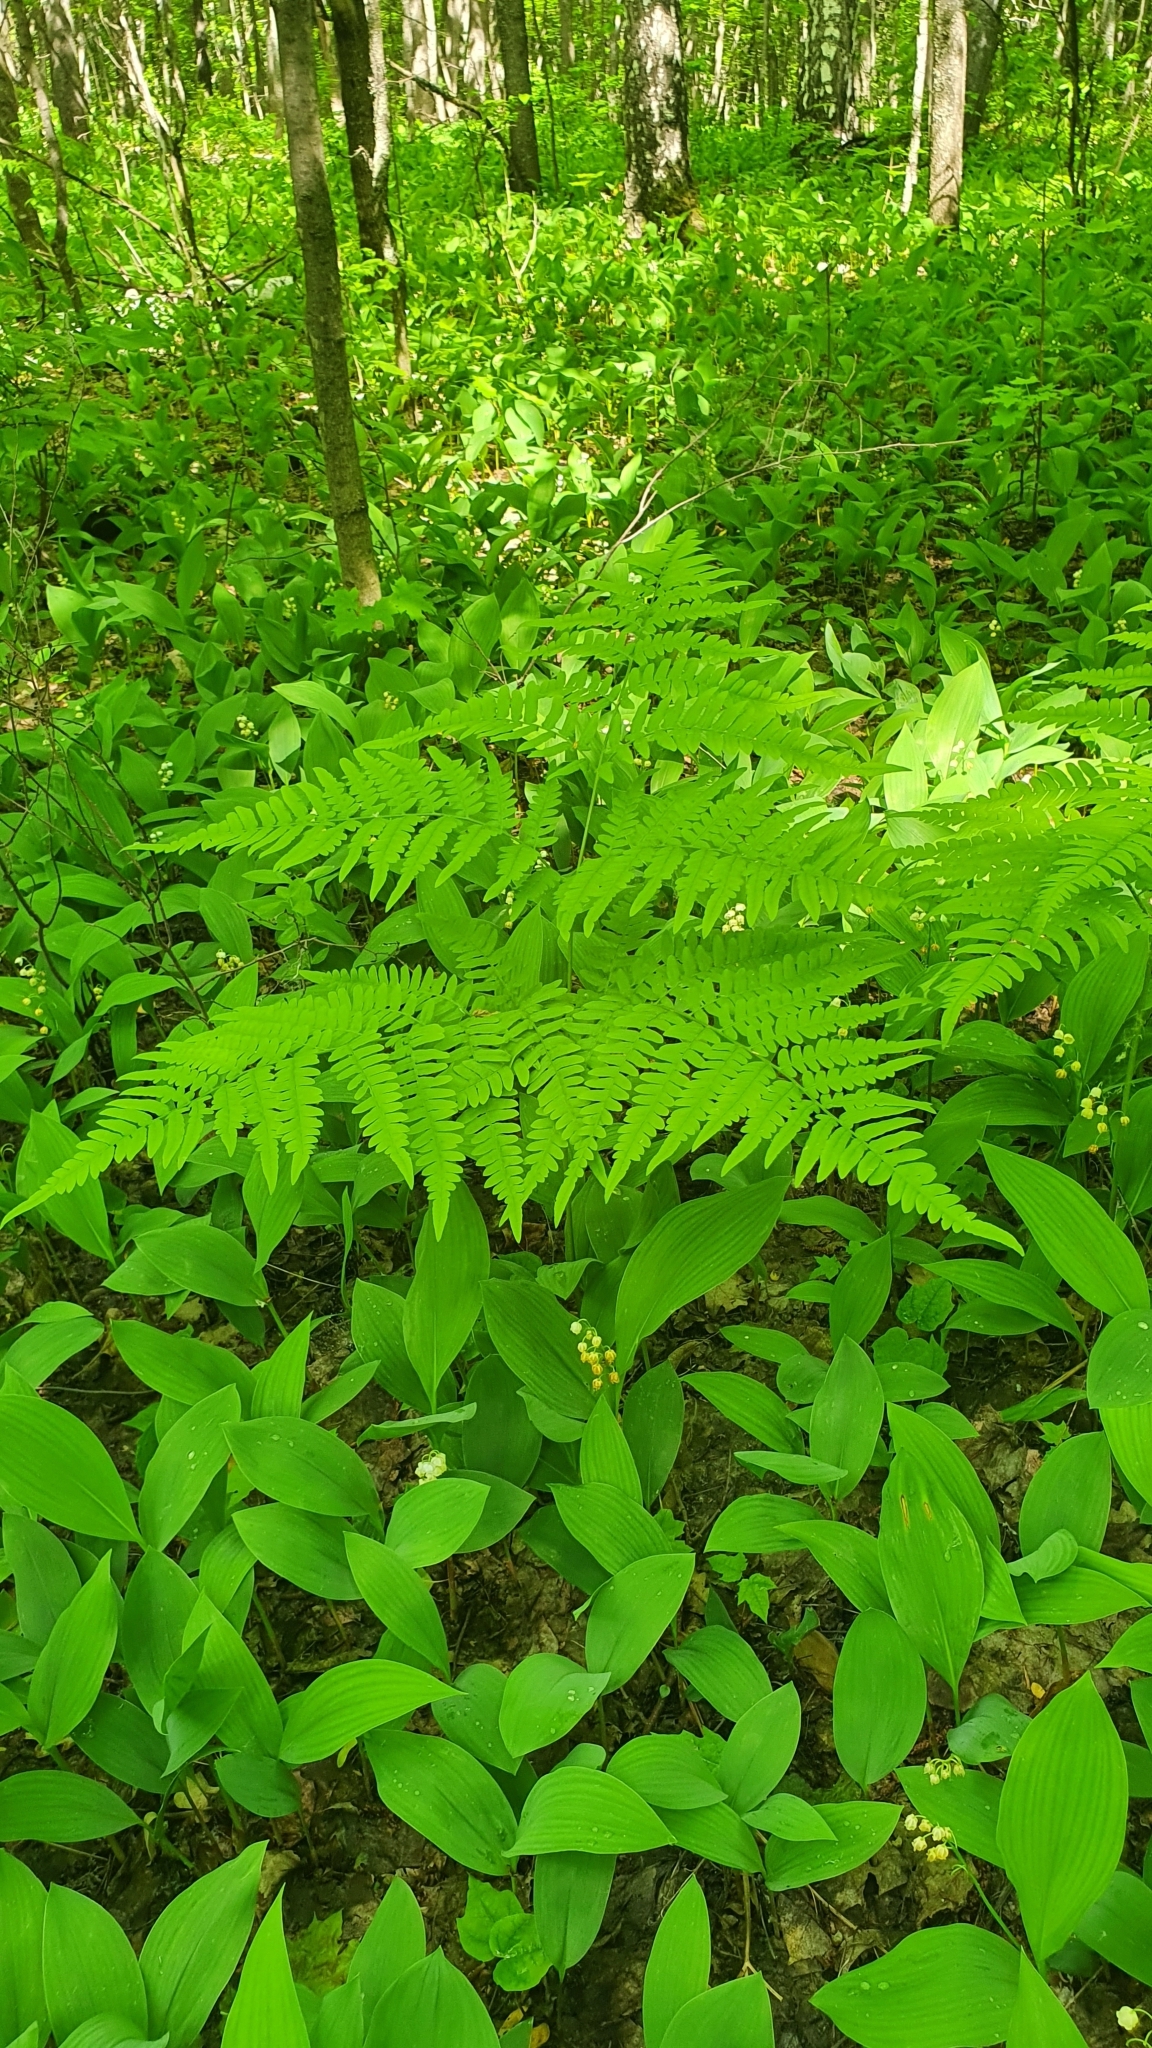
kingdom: Plantae
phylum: Tracheophyta
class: Polypodiopsida
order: Polypodiales
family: Dennstaedtiaceae
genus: Pteridium
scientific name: Pteridium aquilinum
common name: Bracken
